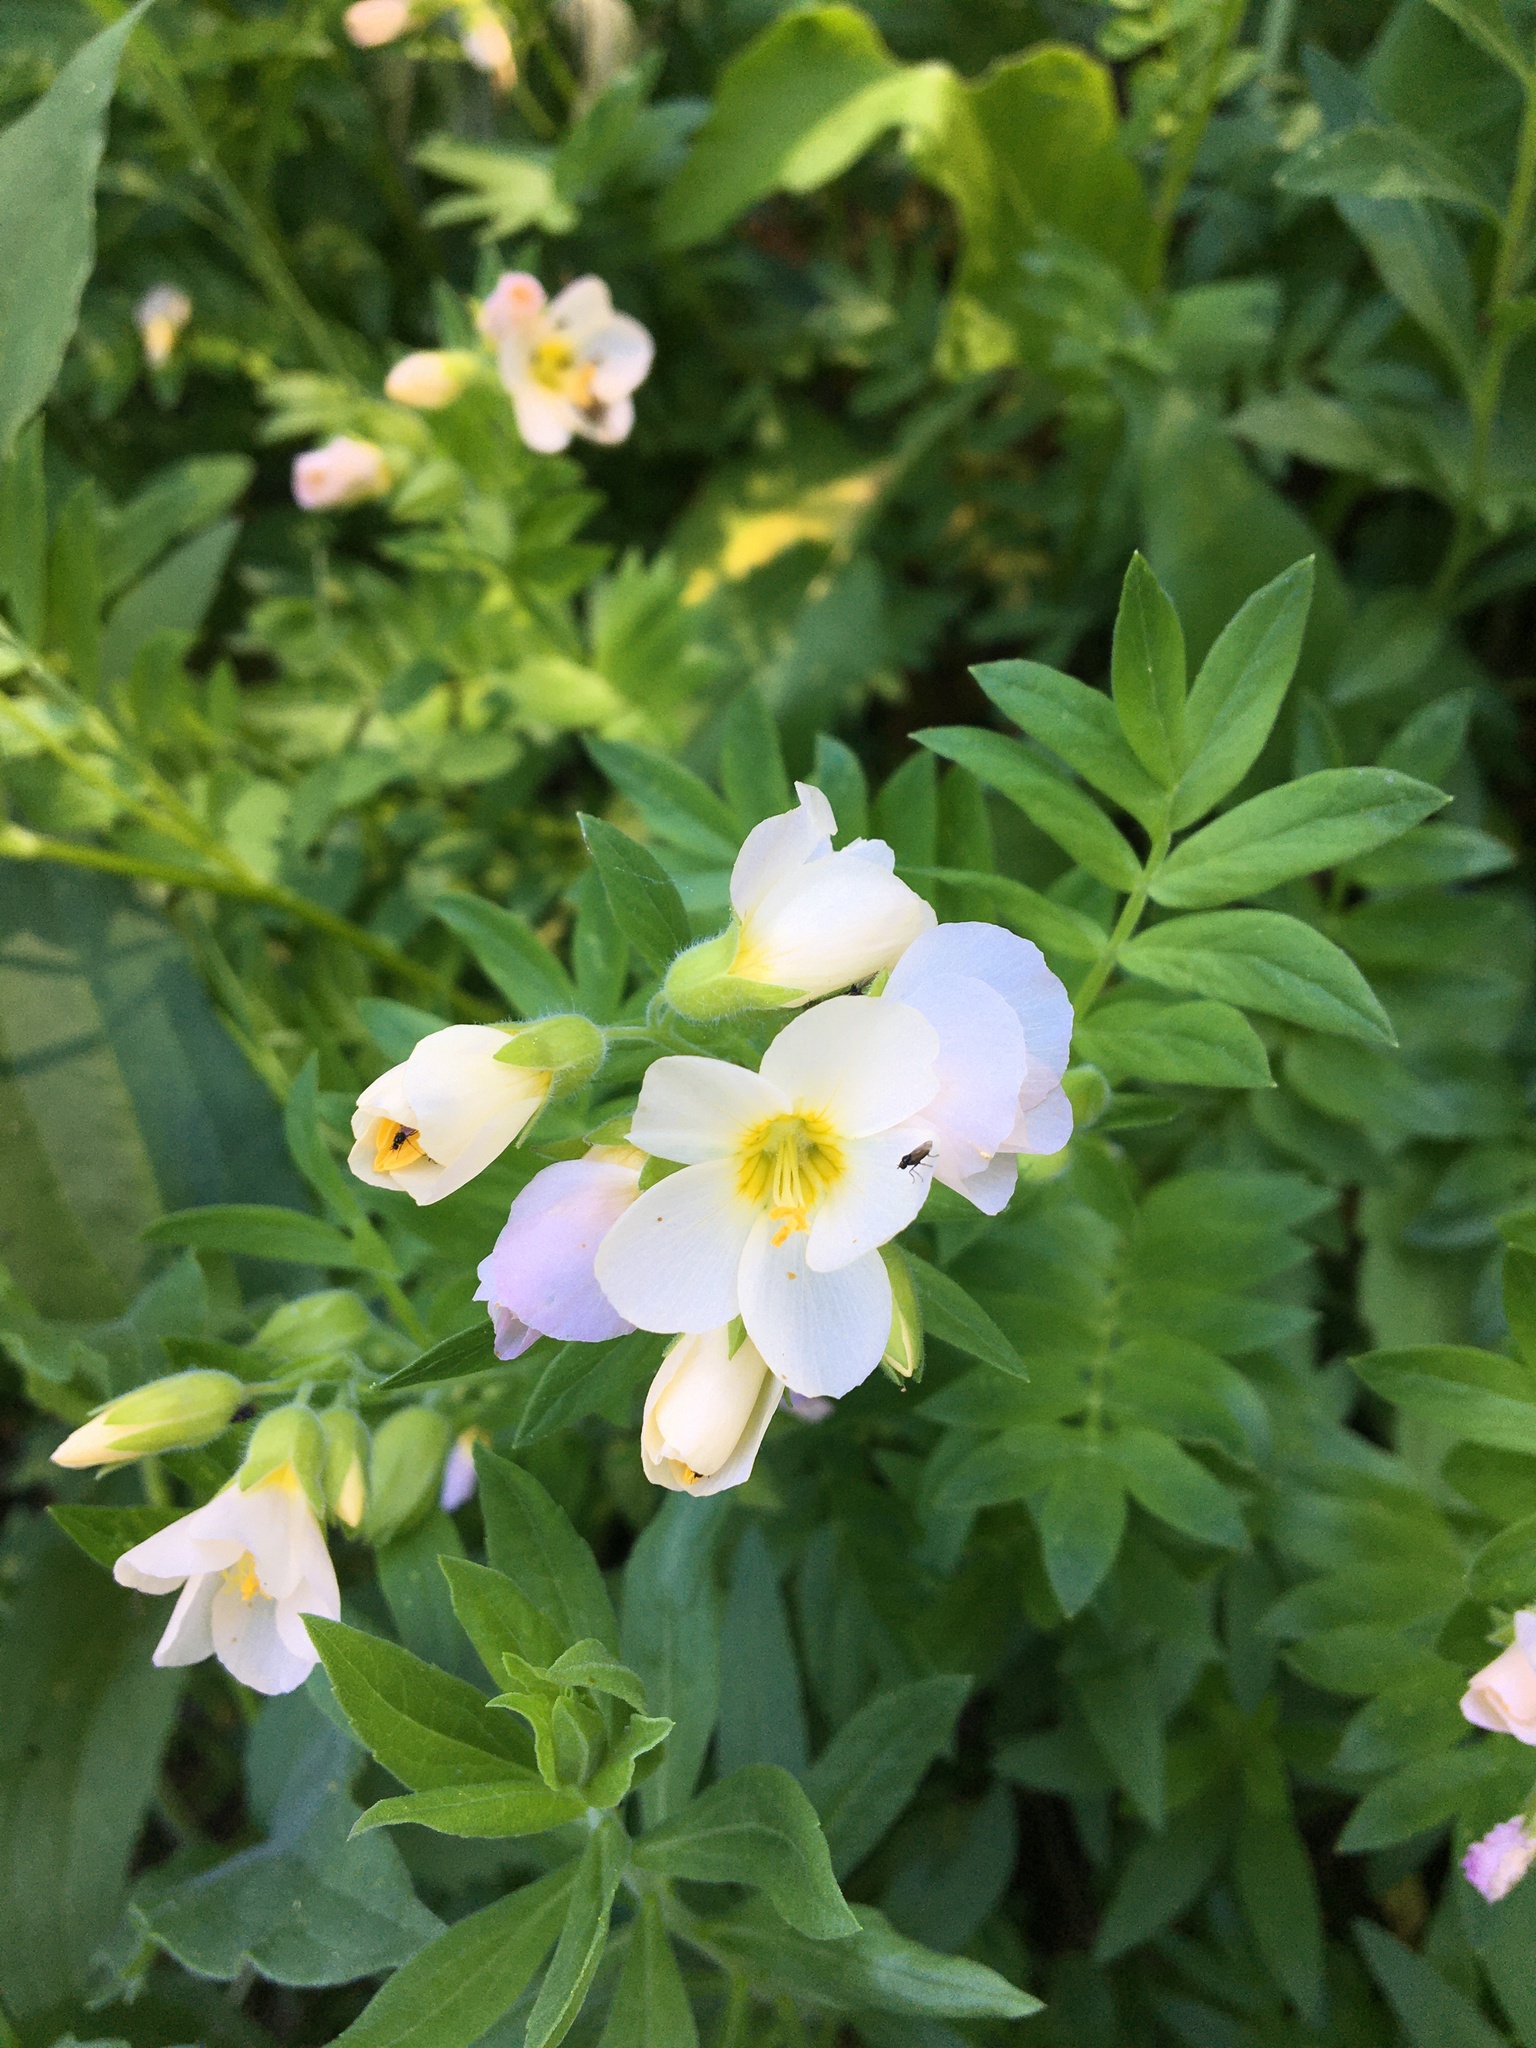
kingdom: Plantae
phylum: Tracheophyta
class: Magnoliopsida
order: Ericales
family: Polemoniaceae
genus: Polemonium
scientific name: Polemonium carneum
